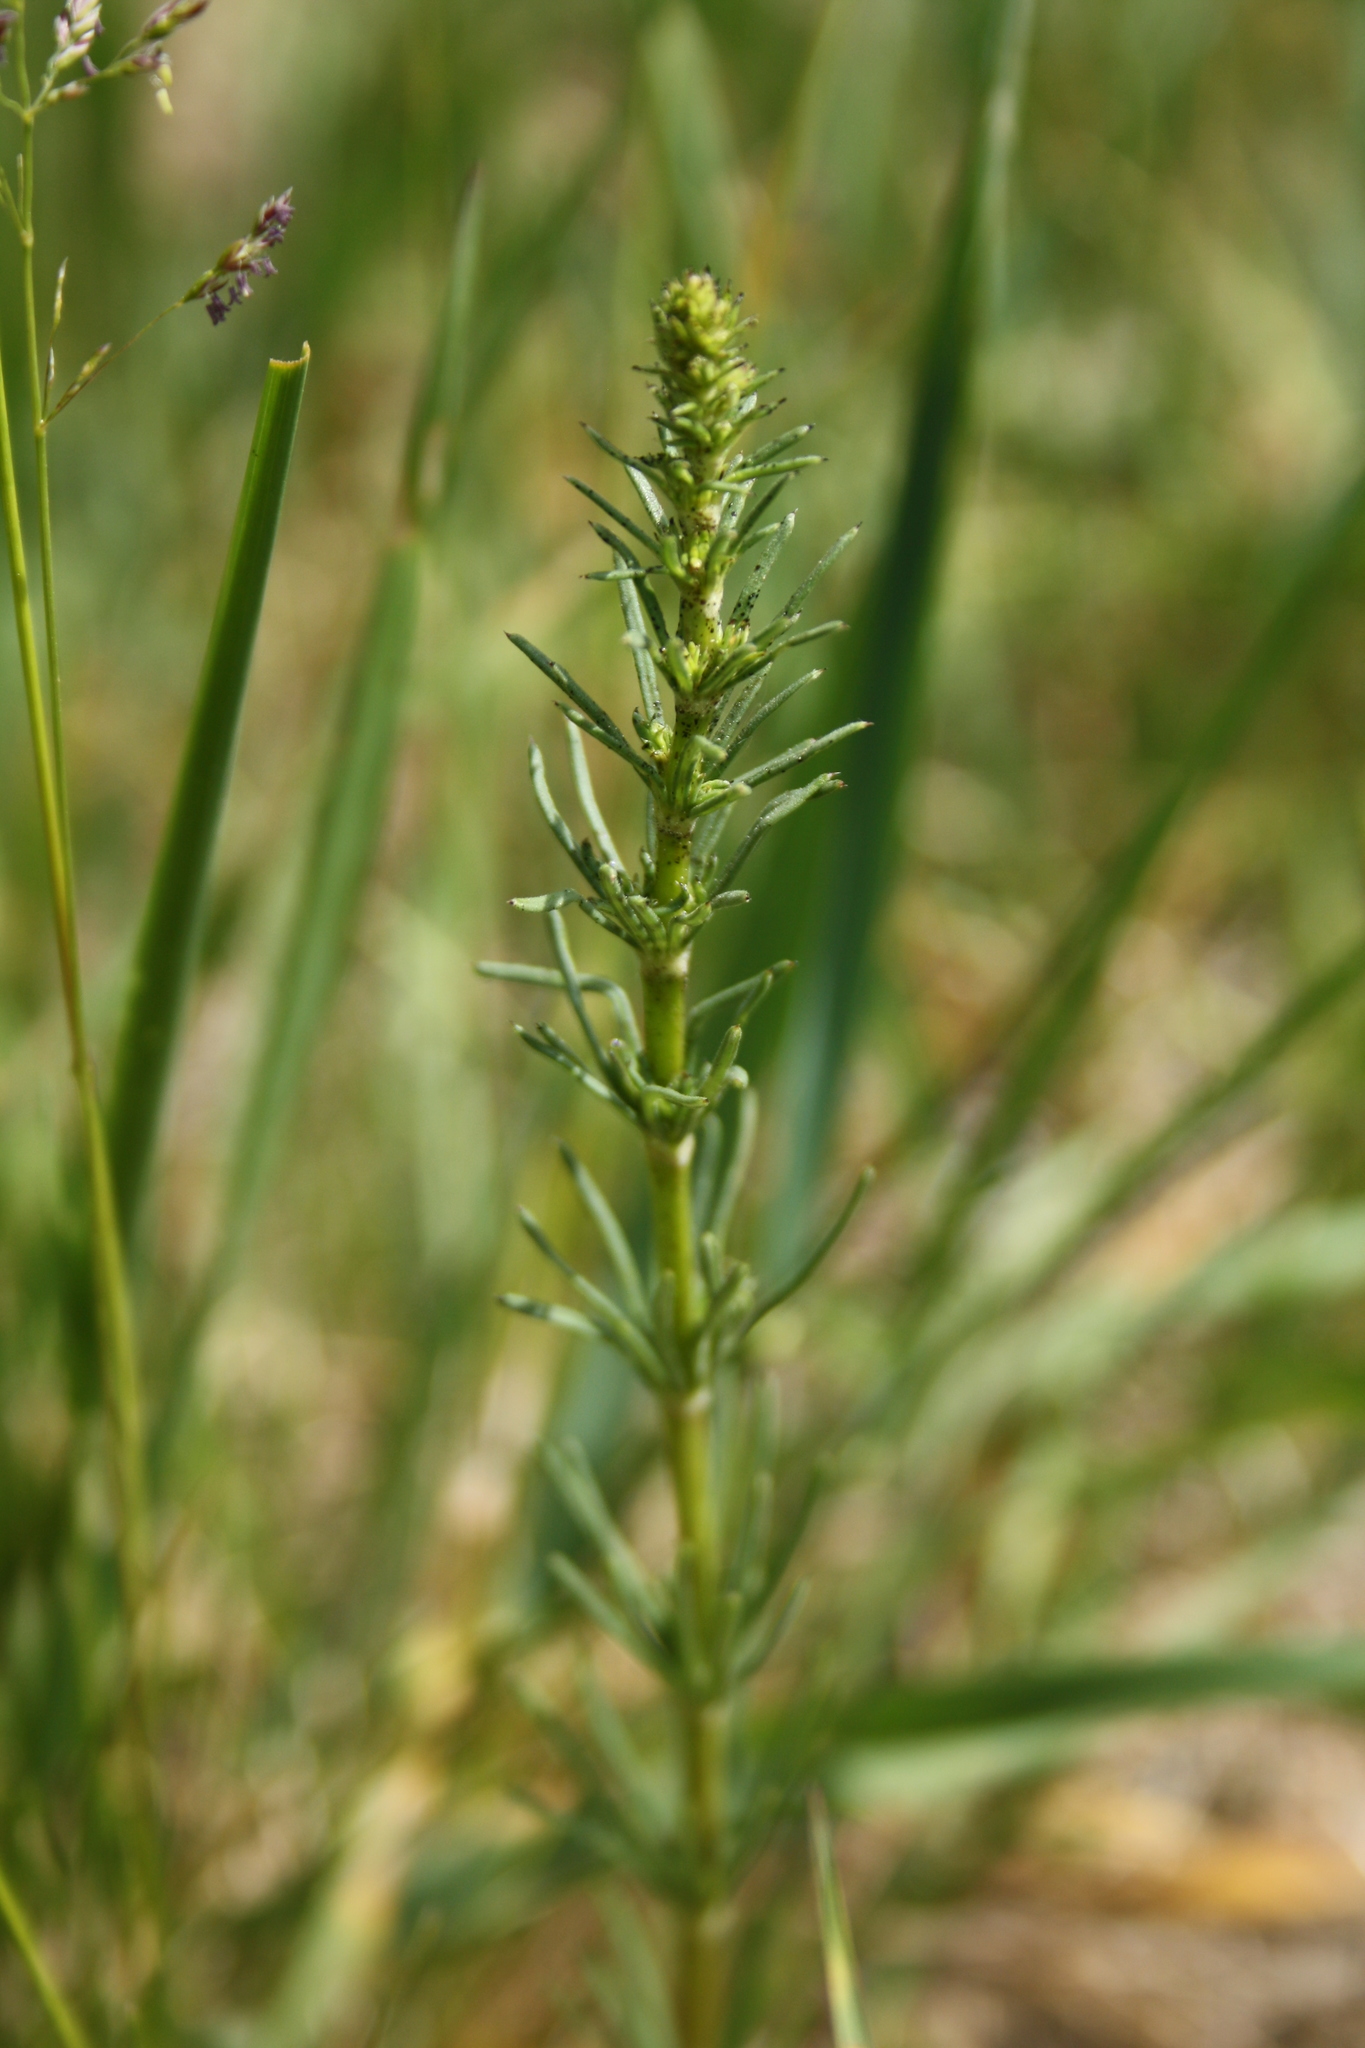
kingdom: Plantae
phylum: Tracheophyta
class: Magnoliopsida
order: Gentianales
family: Rubiaceae
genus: Galium
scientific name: Galium verum
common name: Lady's bedstraw
